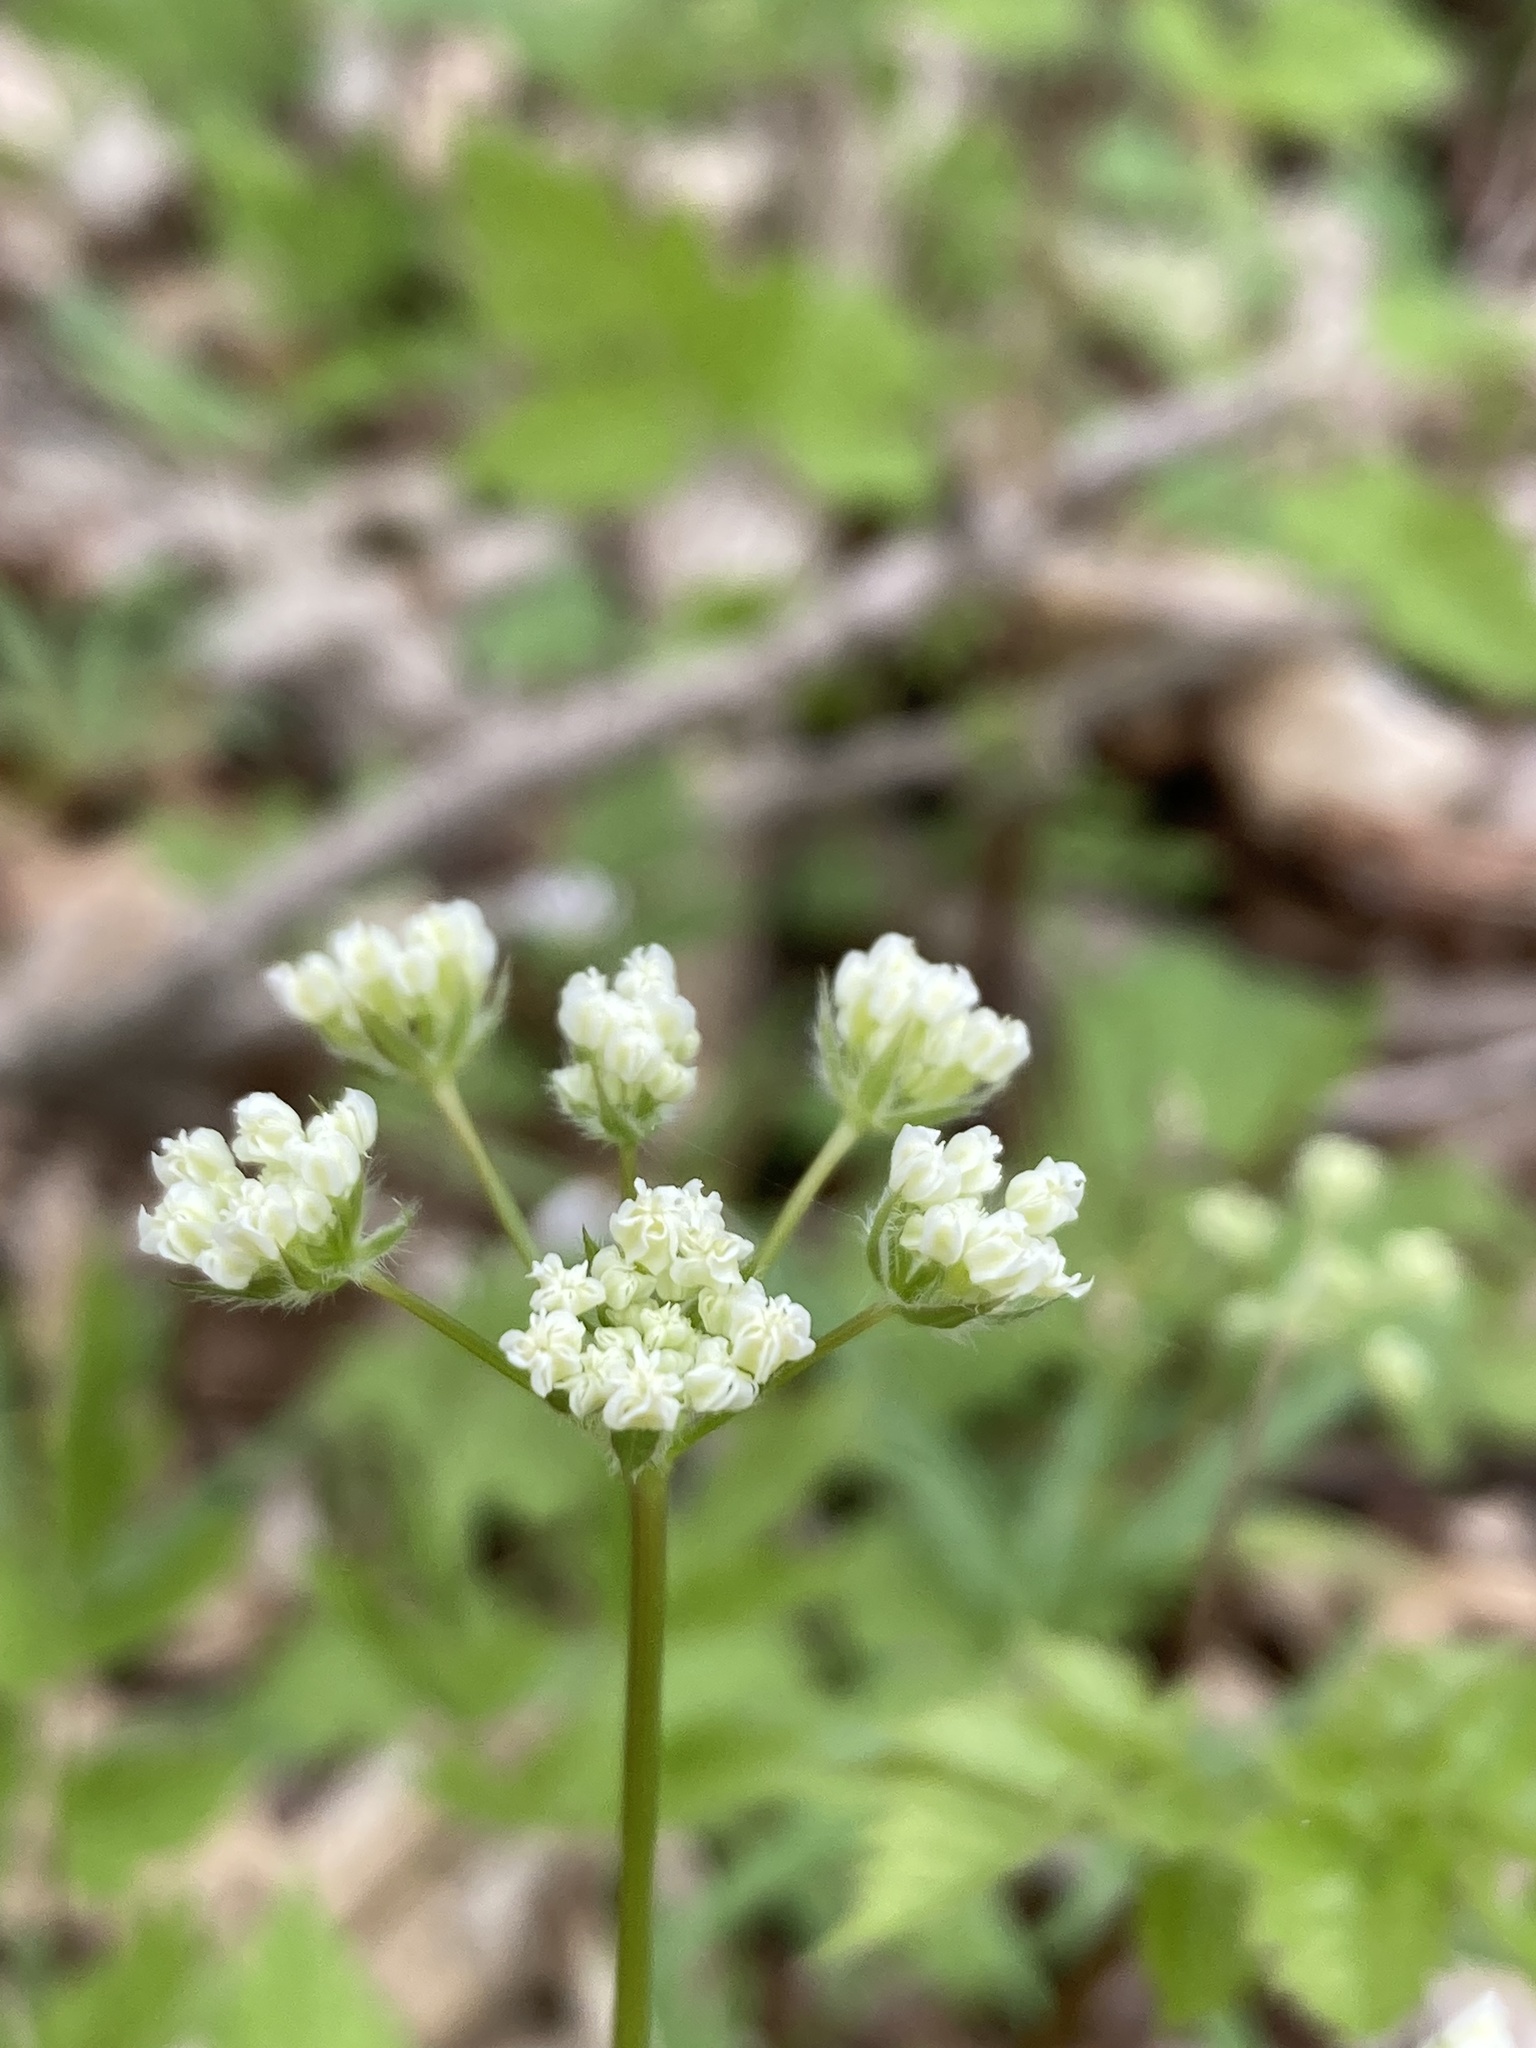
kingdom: Plantae
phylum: Tracheophyta
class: Magnoliopsida
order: Apiales
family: Apiaceae
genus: Osmorhiza
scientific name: Osmorhiza longistylis
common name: Smooth sweet cicely
